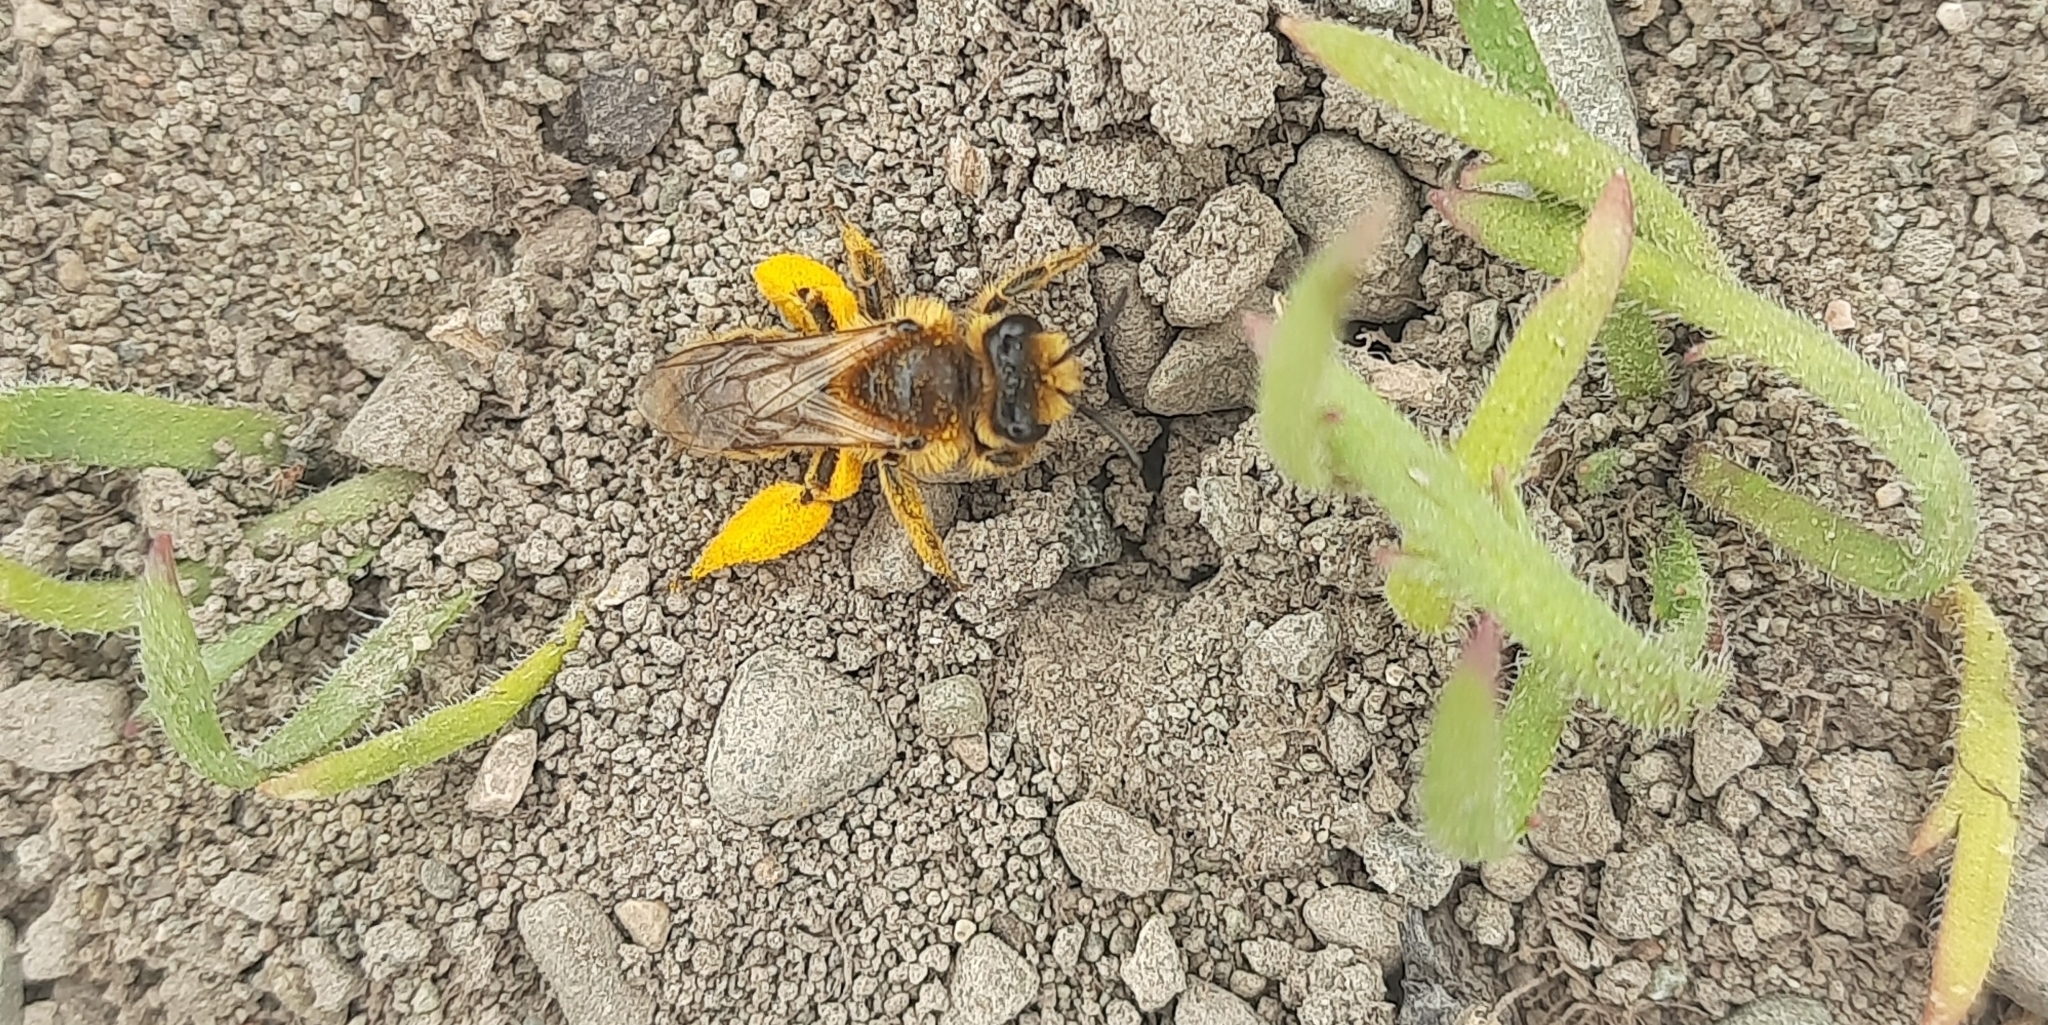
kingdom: Animalia
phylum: Arthropoda
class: Insecta
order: Hymenoptera
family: Colletidae
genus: Leioproctus
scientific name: Leioproctus fulvescens
